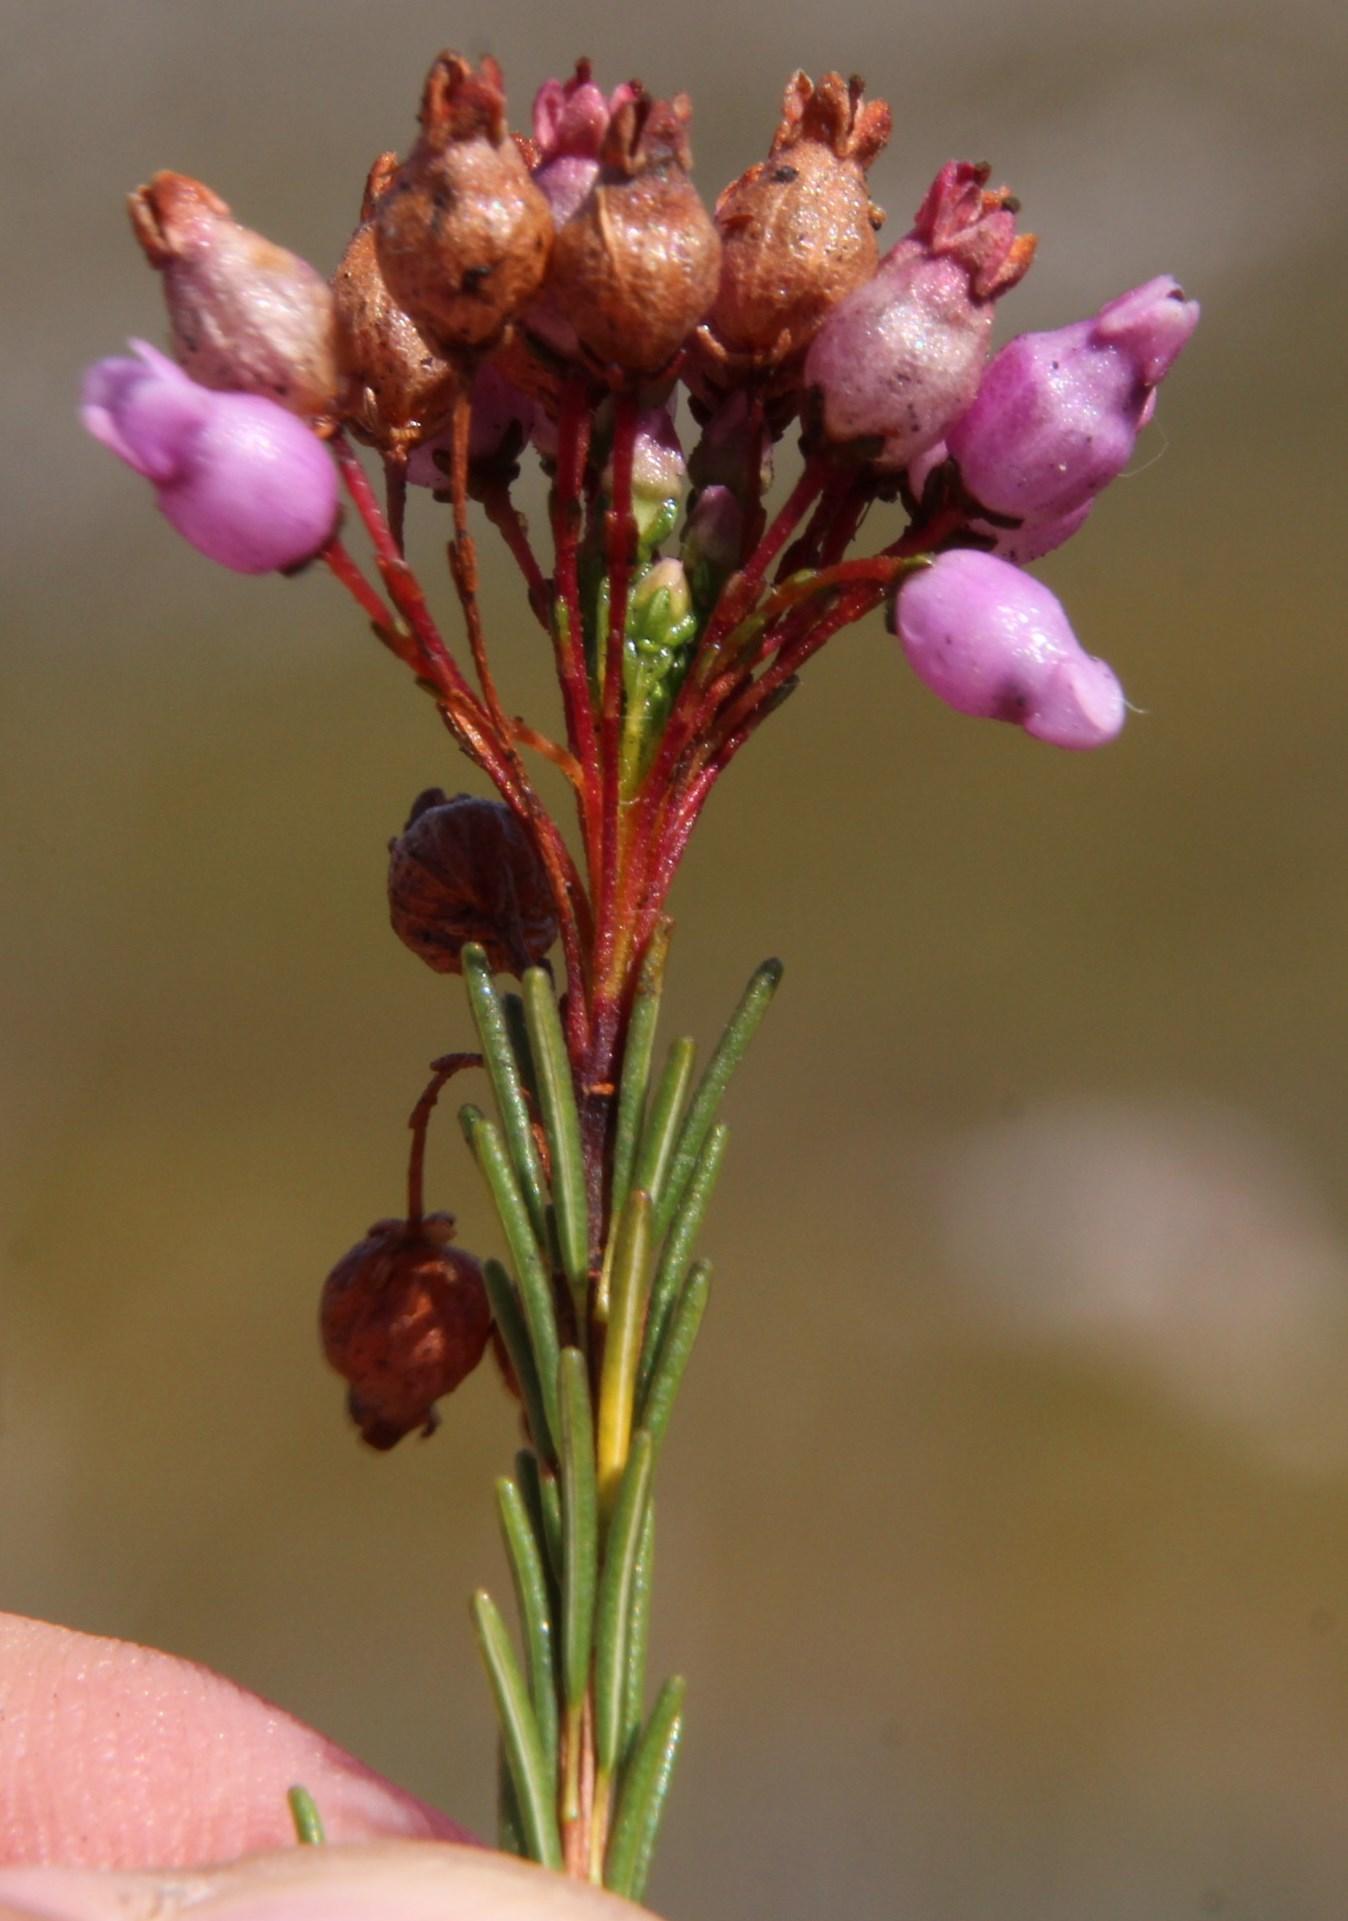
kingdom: Plantae
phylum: Tracheophyta
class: Magnoliopsida
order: Ericales
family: Ericaceae
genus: Erica
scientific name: Erica obliqua
